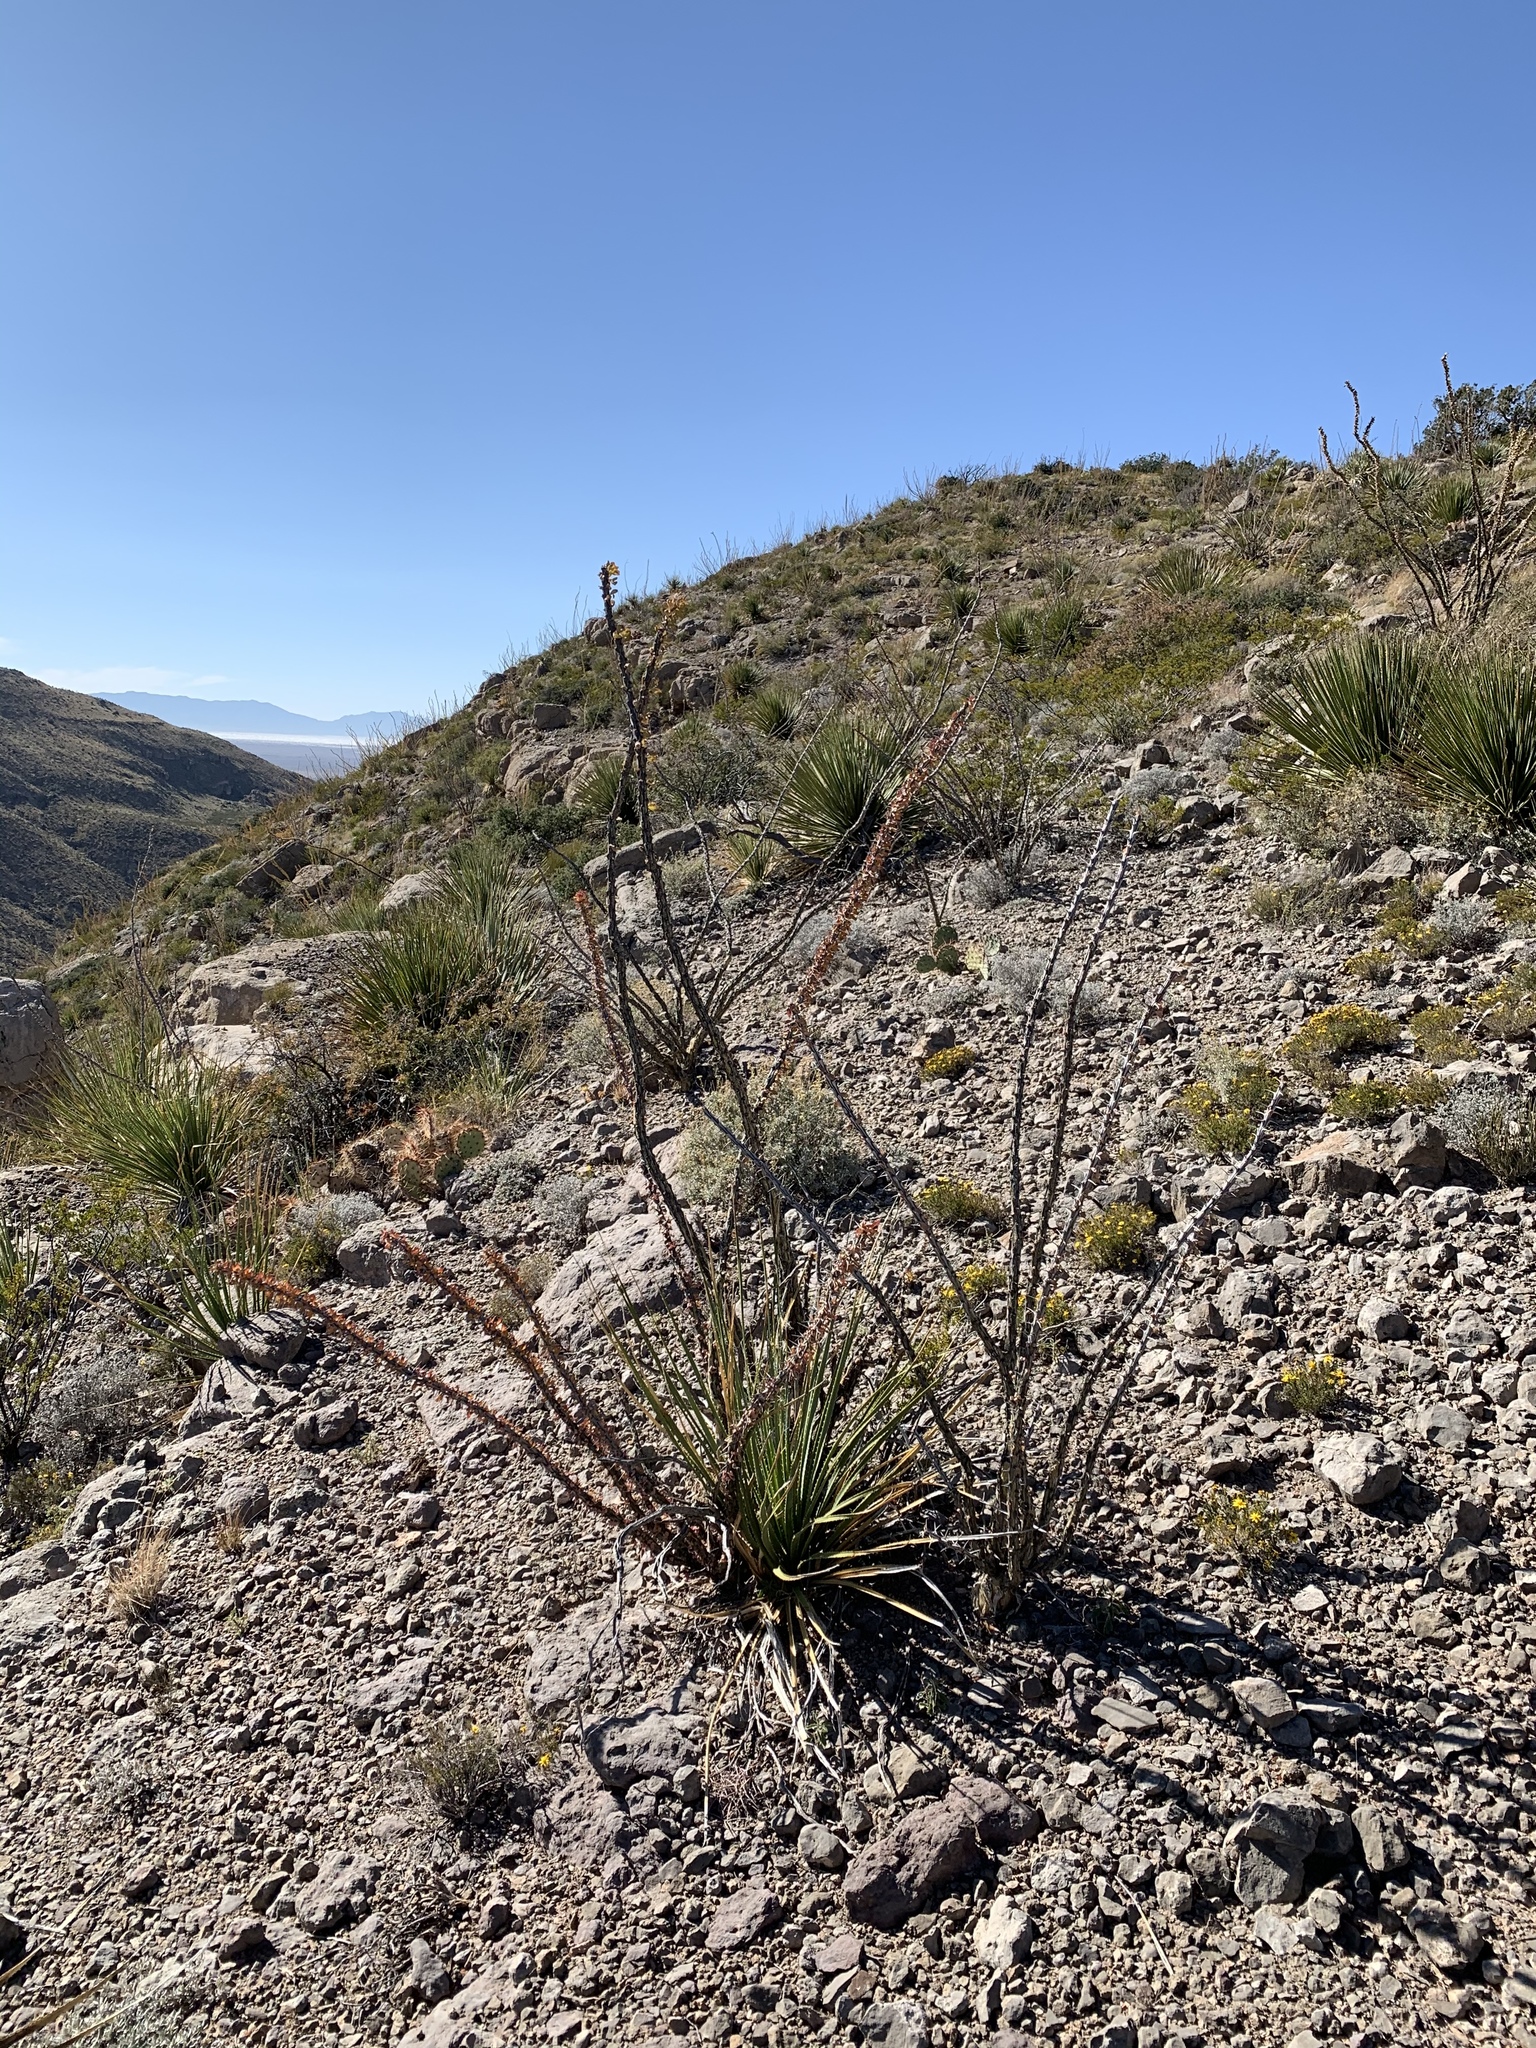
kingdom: Plantae
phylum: Tracheophyta
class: Magnoliopsida
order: Ericales
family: Fouquieriaceae
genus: Fouquieria
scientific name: Fouquieria splendens
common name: Vine-cactus
